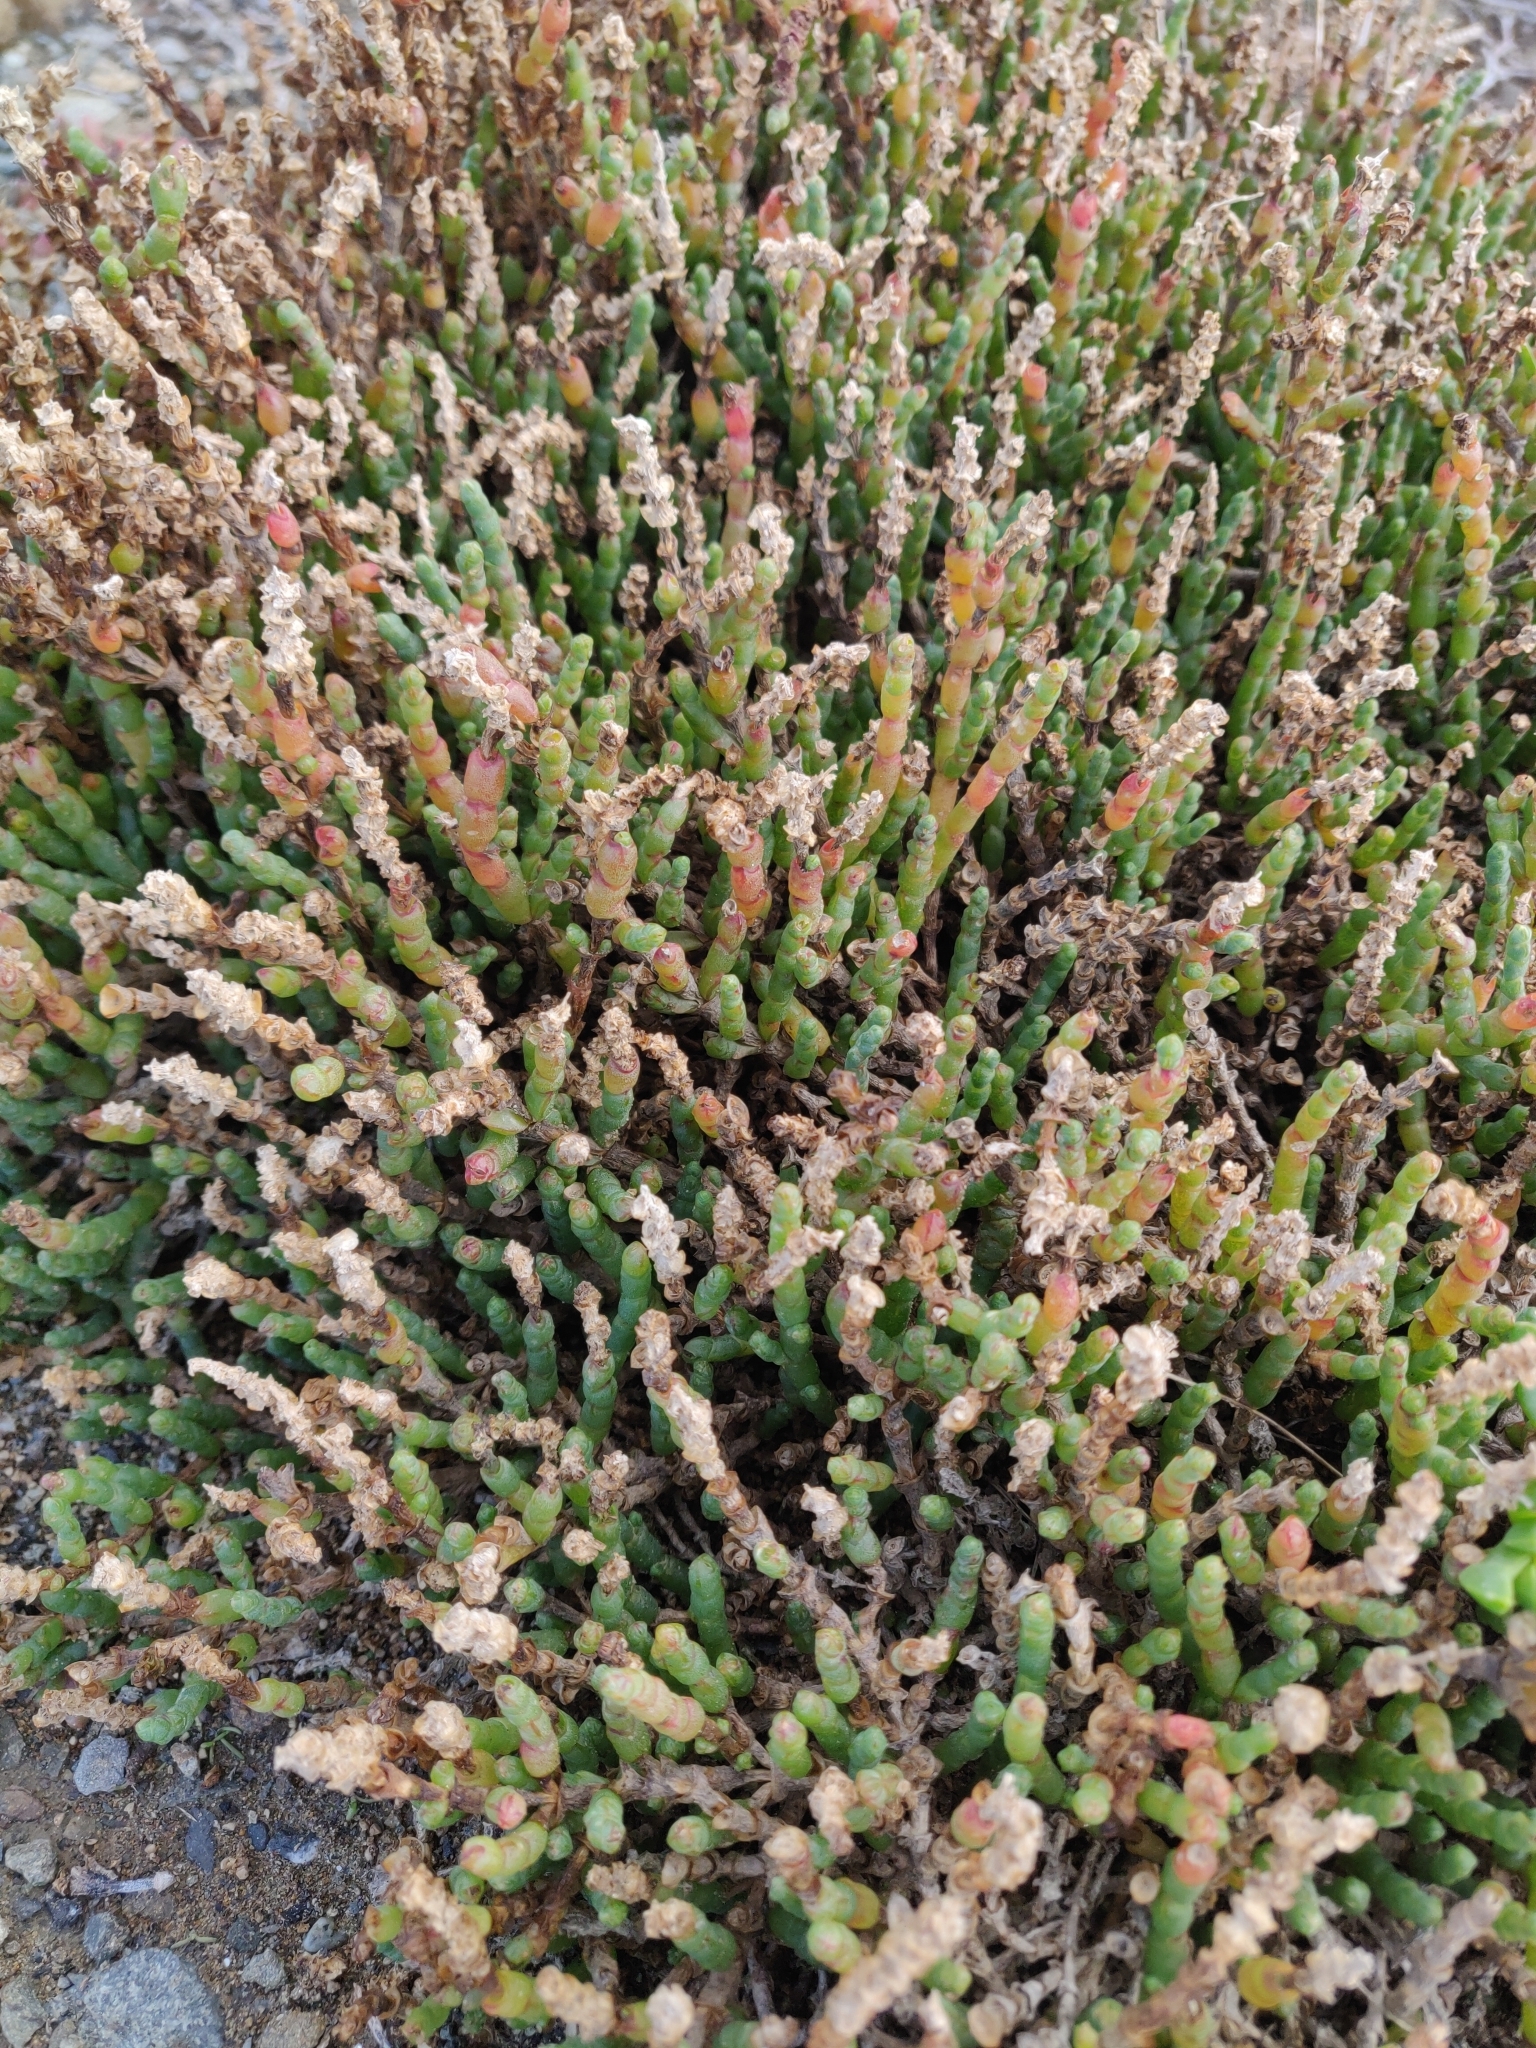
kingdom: Plantae
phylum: Tracheophyta
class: Magnoliopsida
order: Caryophyllales
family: Amaranthaceae
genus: Salicornia
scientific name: Salicornia quinqueflora
